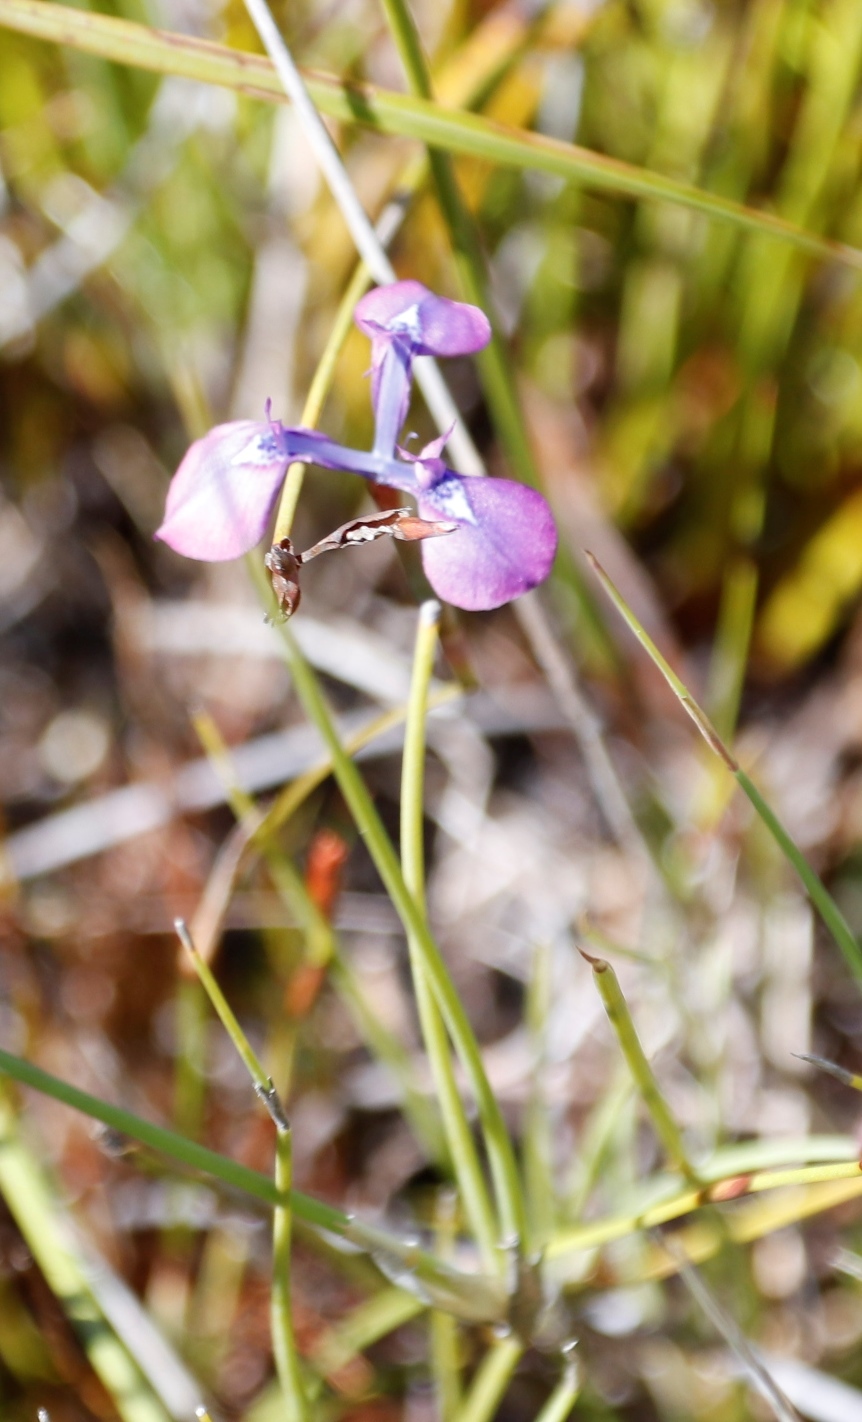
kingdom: Plantae
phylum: Tracheophyta
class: Liliopsida
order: Asparagales
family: Iridaceae
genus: Moraea
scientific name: Moraea tripetala
